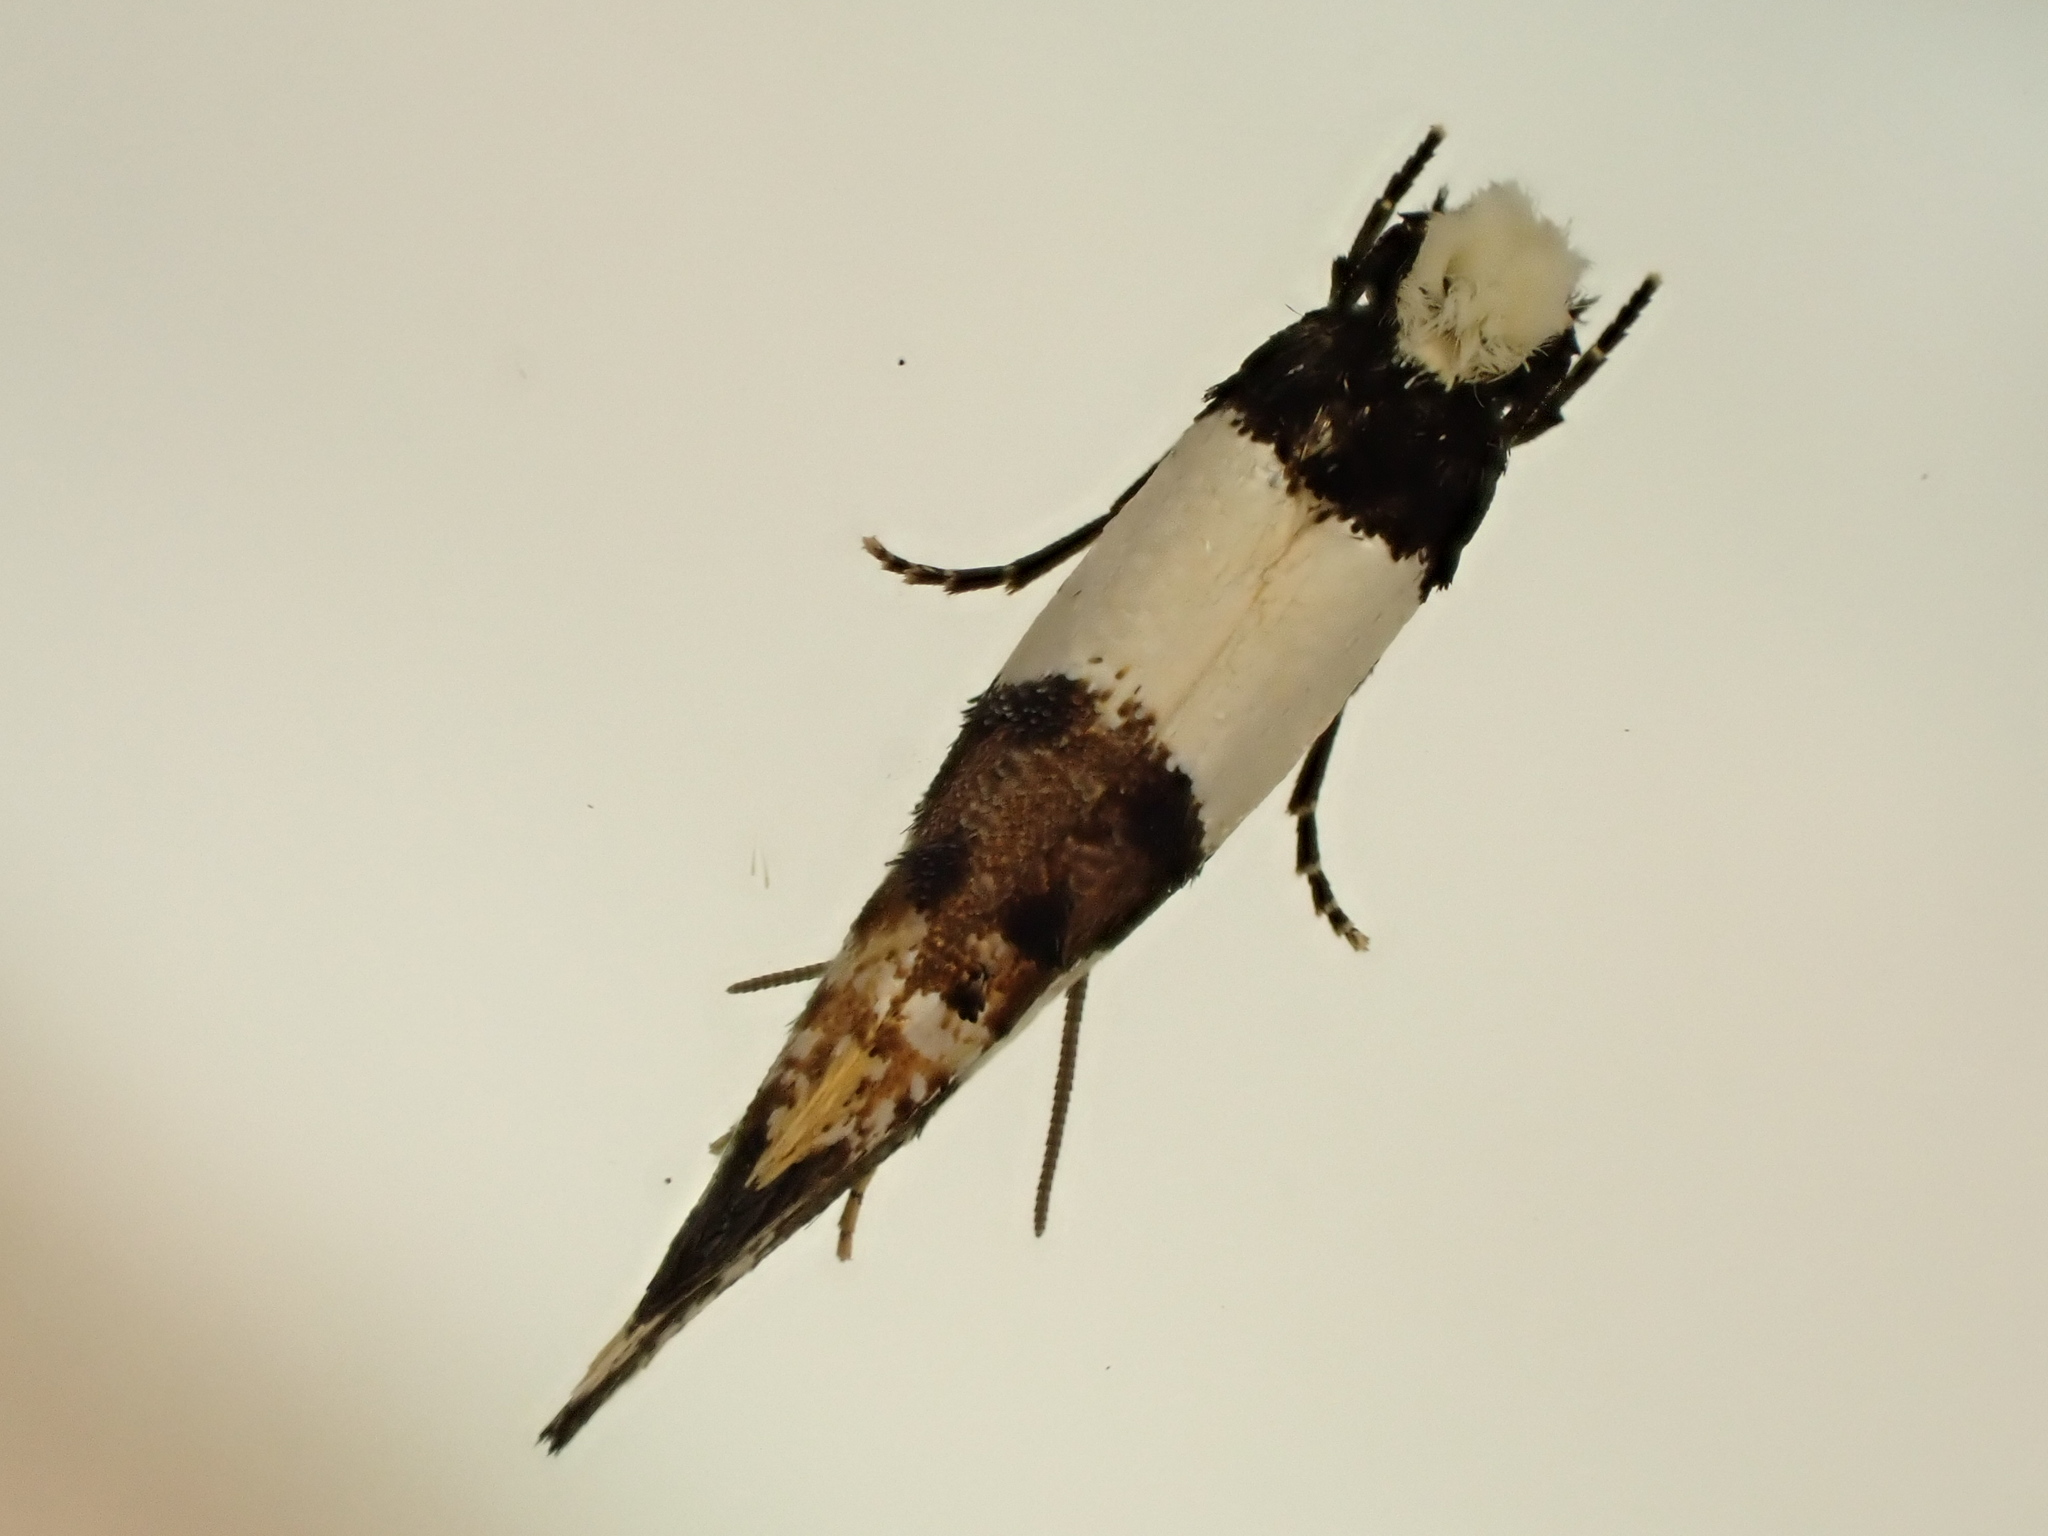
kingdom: Animalia
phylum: Arthropoda
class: Insecta
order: Lepidoptera
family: Tineidae
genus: Monopis
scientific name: Monopis icterogastra
